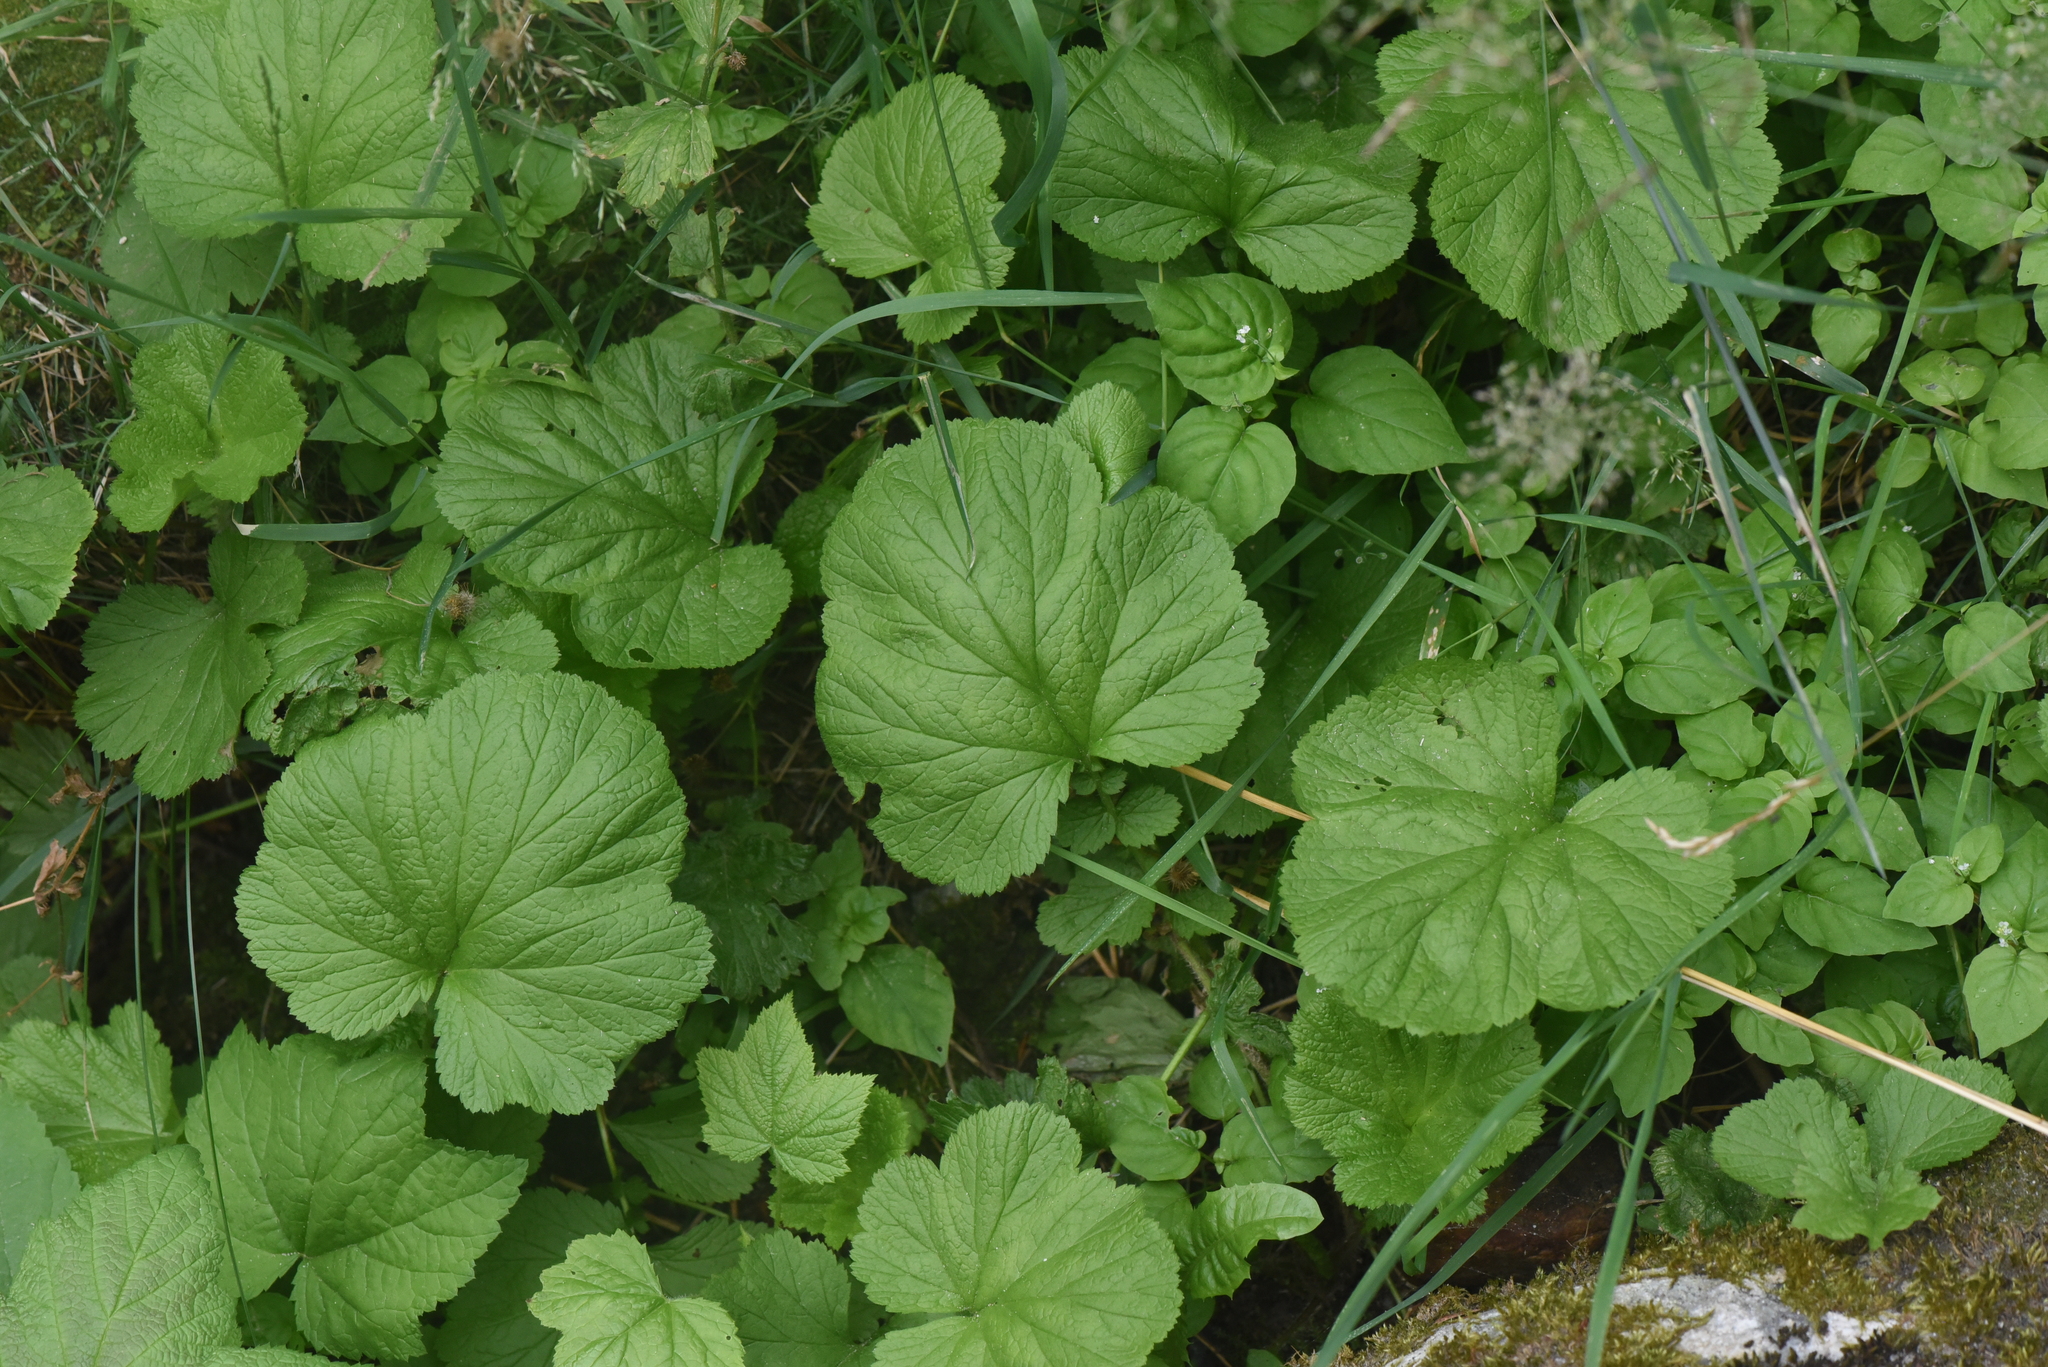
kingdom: Plantae
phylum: Tracheophyta
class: Magnoliopsida
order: Rosales
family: Rosaceae
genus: Geum
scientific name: Geum macrophyllum
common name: Large-leaved avens
